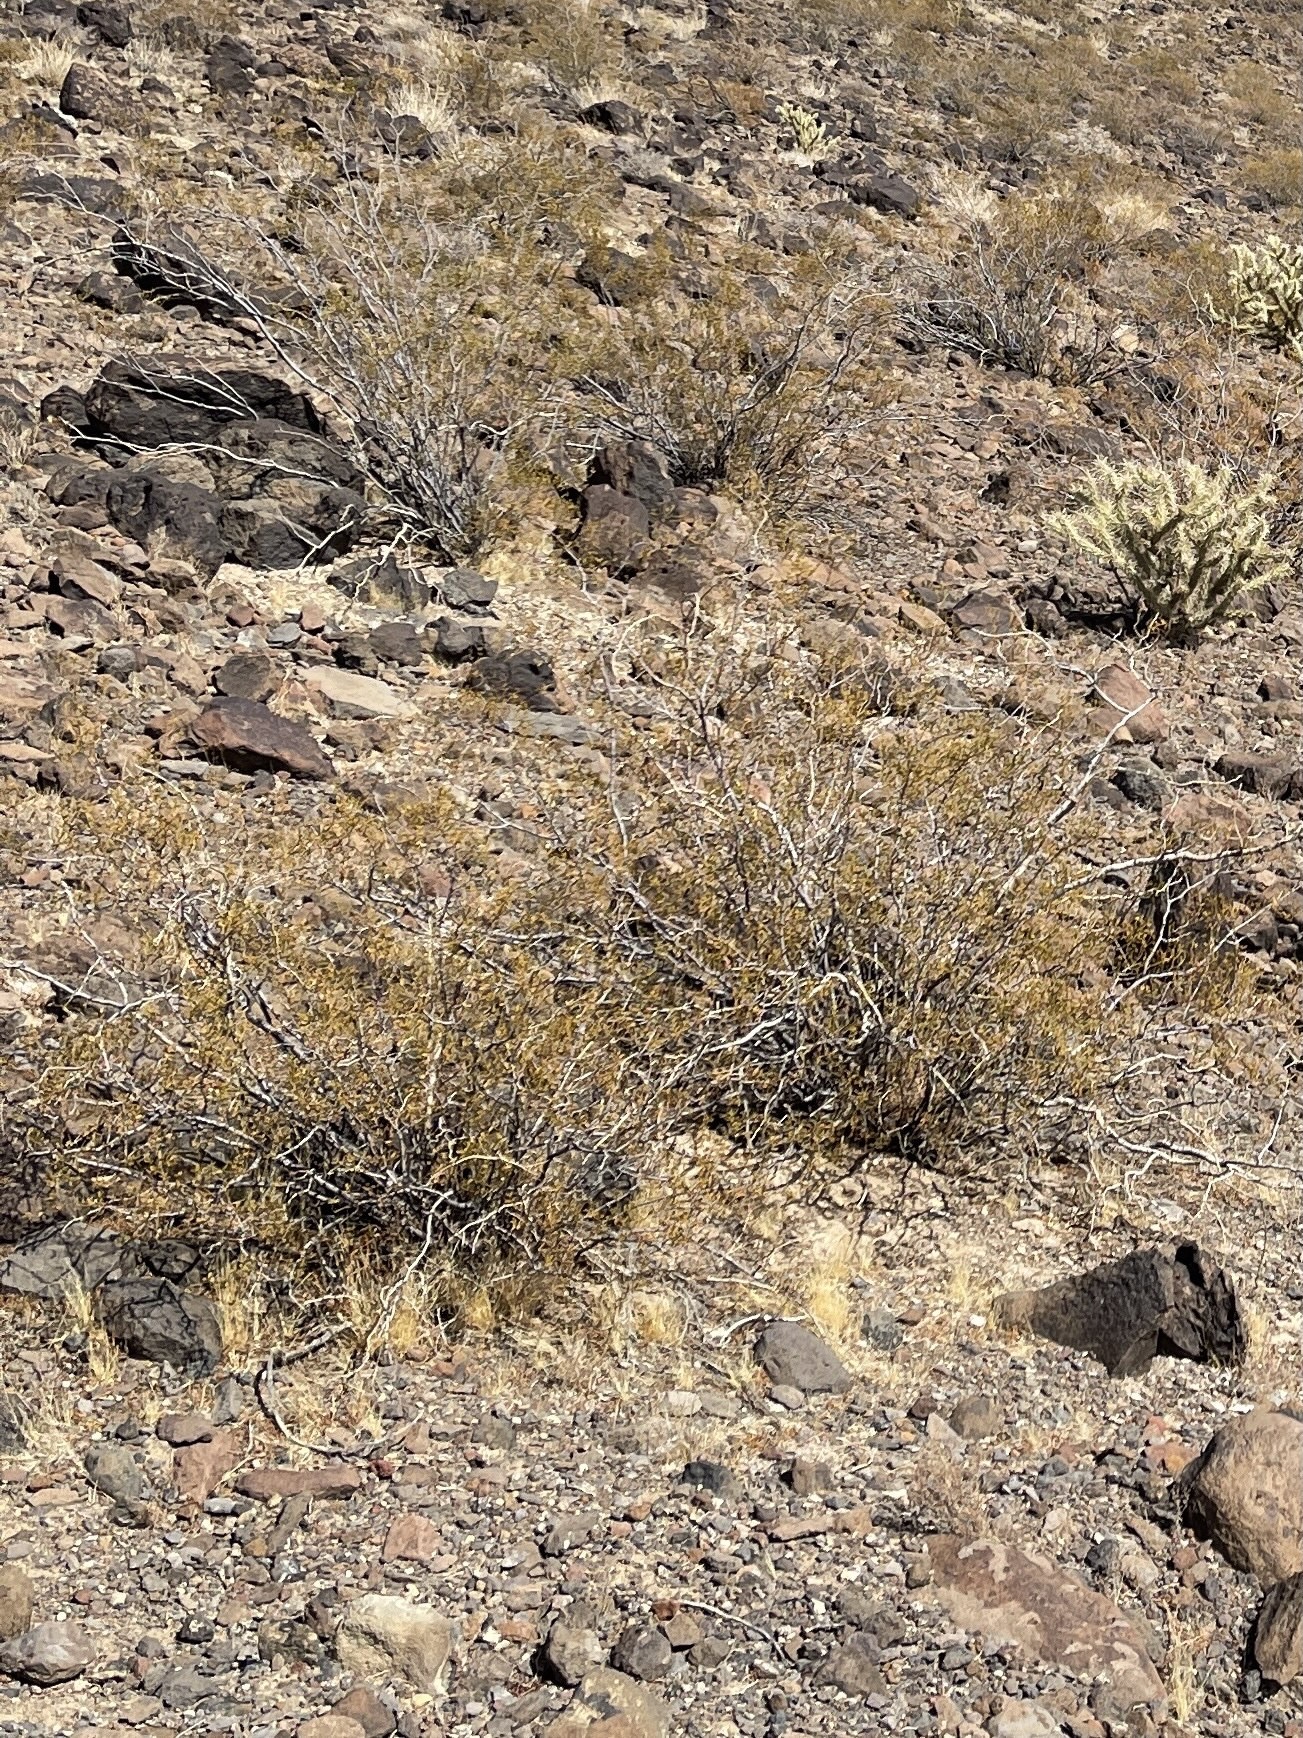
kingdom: Plantae
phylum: Tracheophyta
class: Magnoliopsida
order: Zygophyllales
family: Zygophyllaceae
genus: Larrea
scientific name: Larrea tridentata
